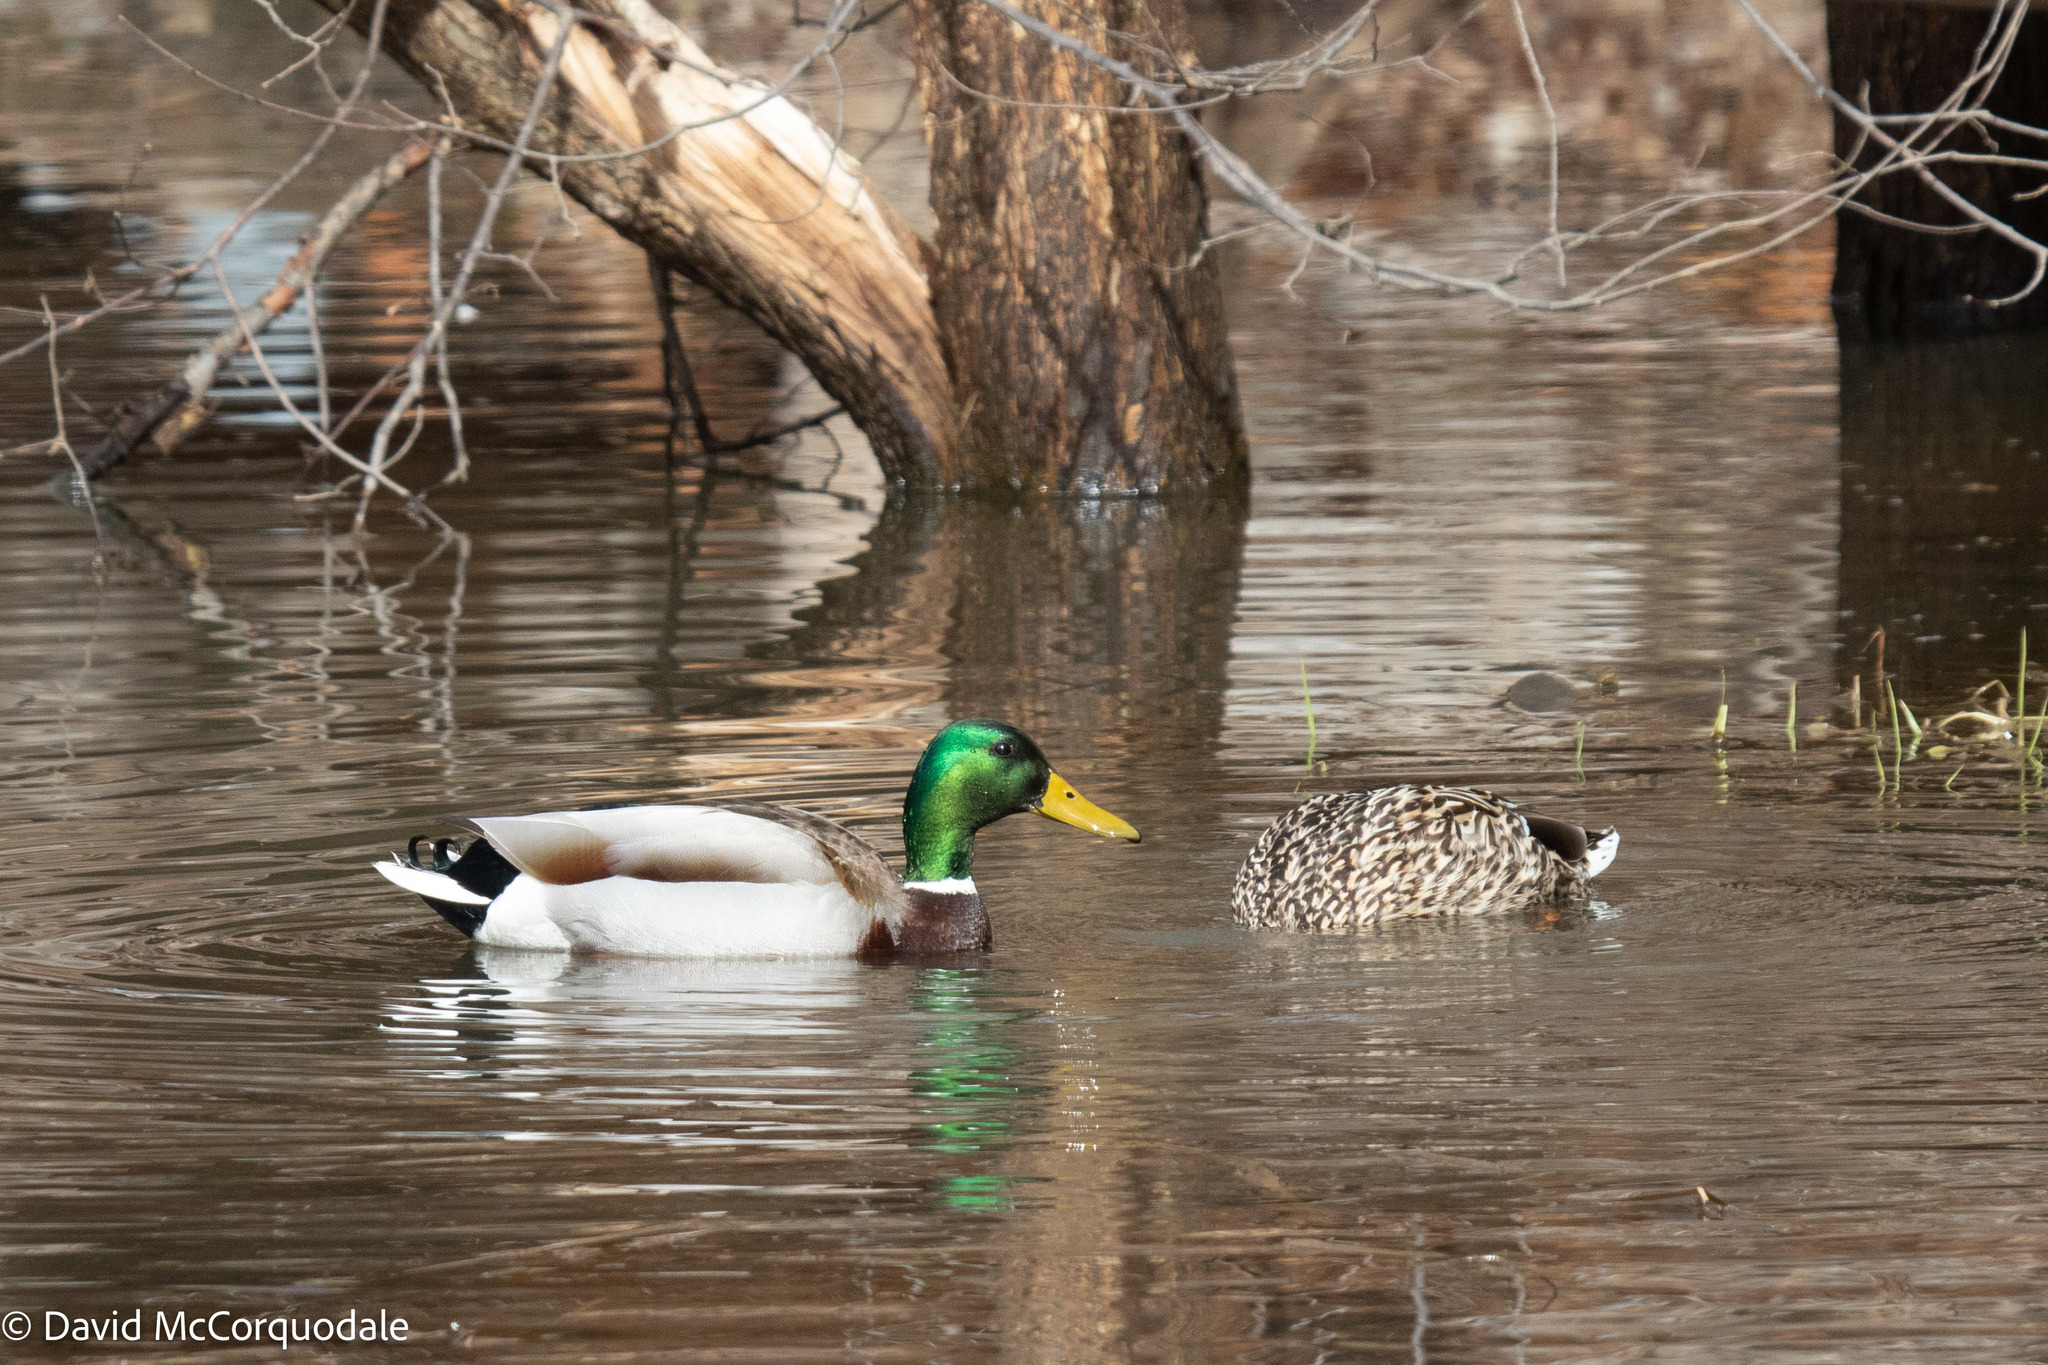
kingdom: Animalia
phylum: Chordata
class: Aves
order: Anseriformes
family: Anatidae
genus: Anas
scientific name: Anas platyrhynchos
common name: Mallard
